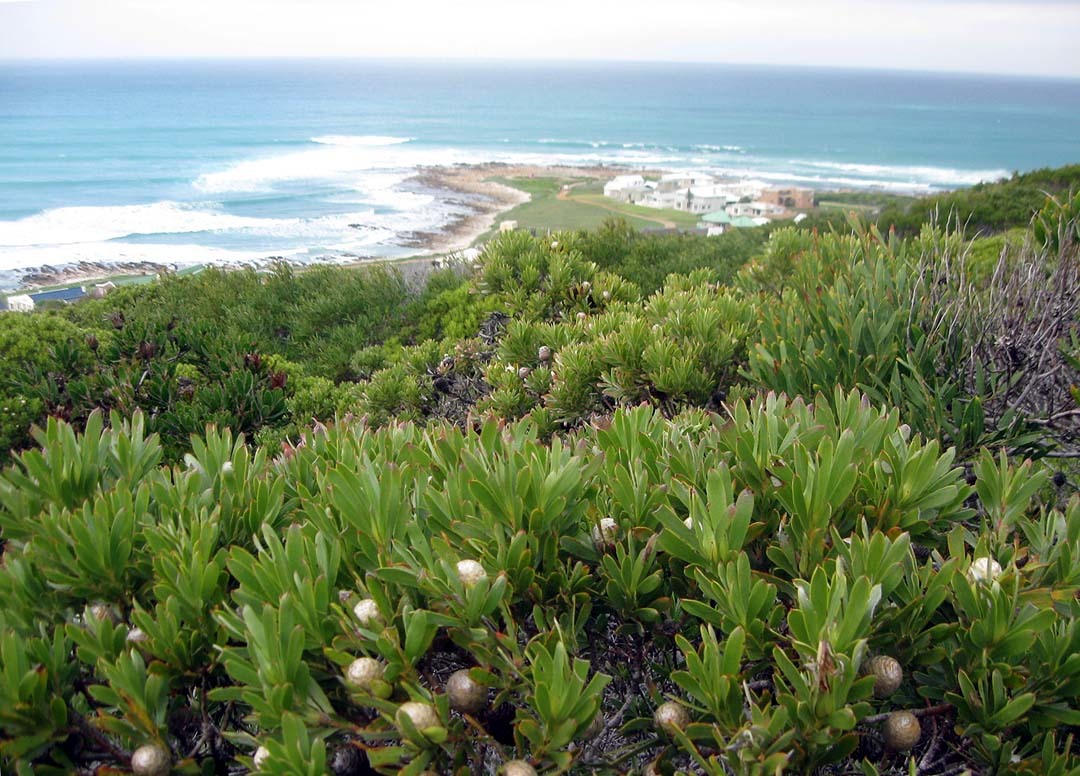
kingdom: Plantae
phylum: Tracheophyta
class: Magnoliopsida
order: Proteales
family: Proteaceae
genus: Leucadendron
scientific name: Leucadendron meridianum
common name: Limestone conebush
